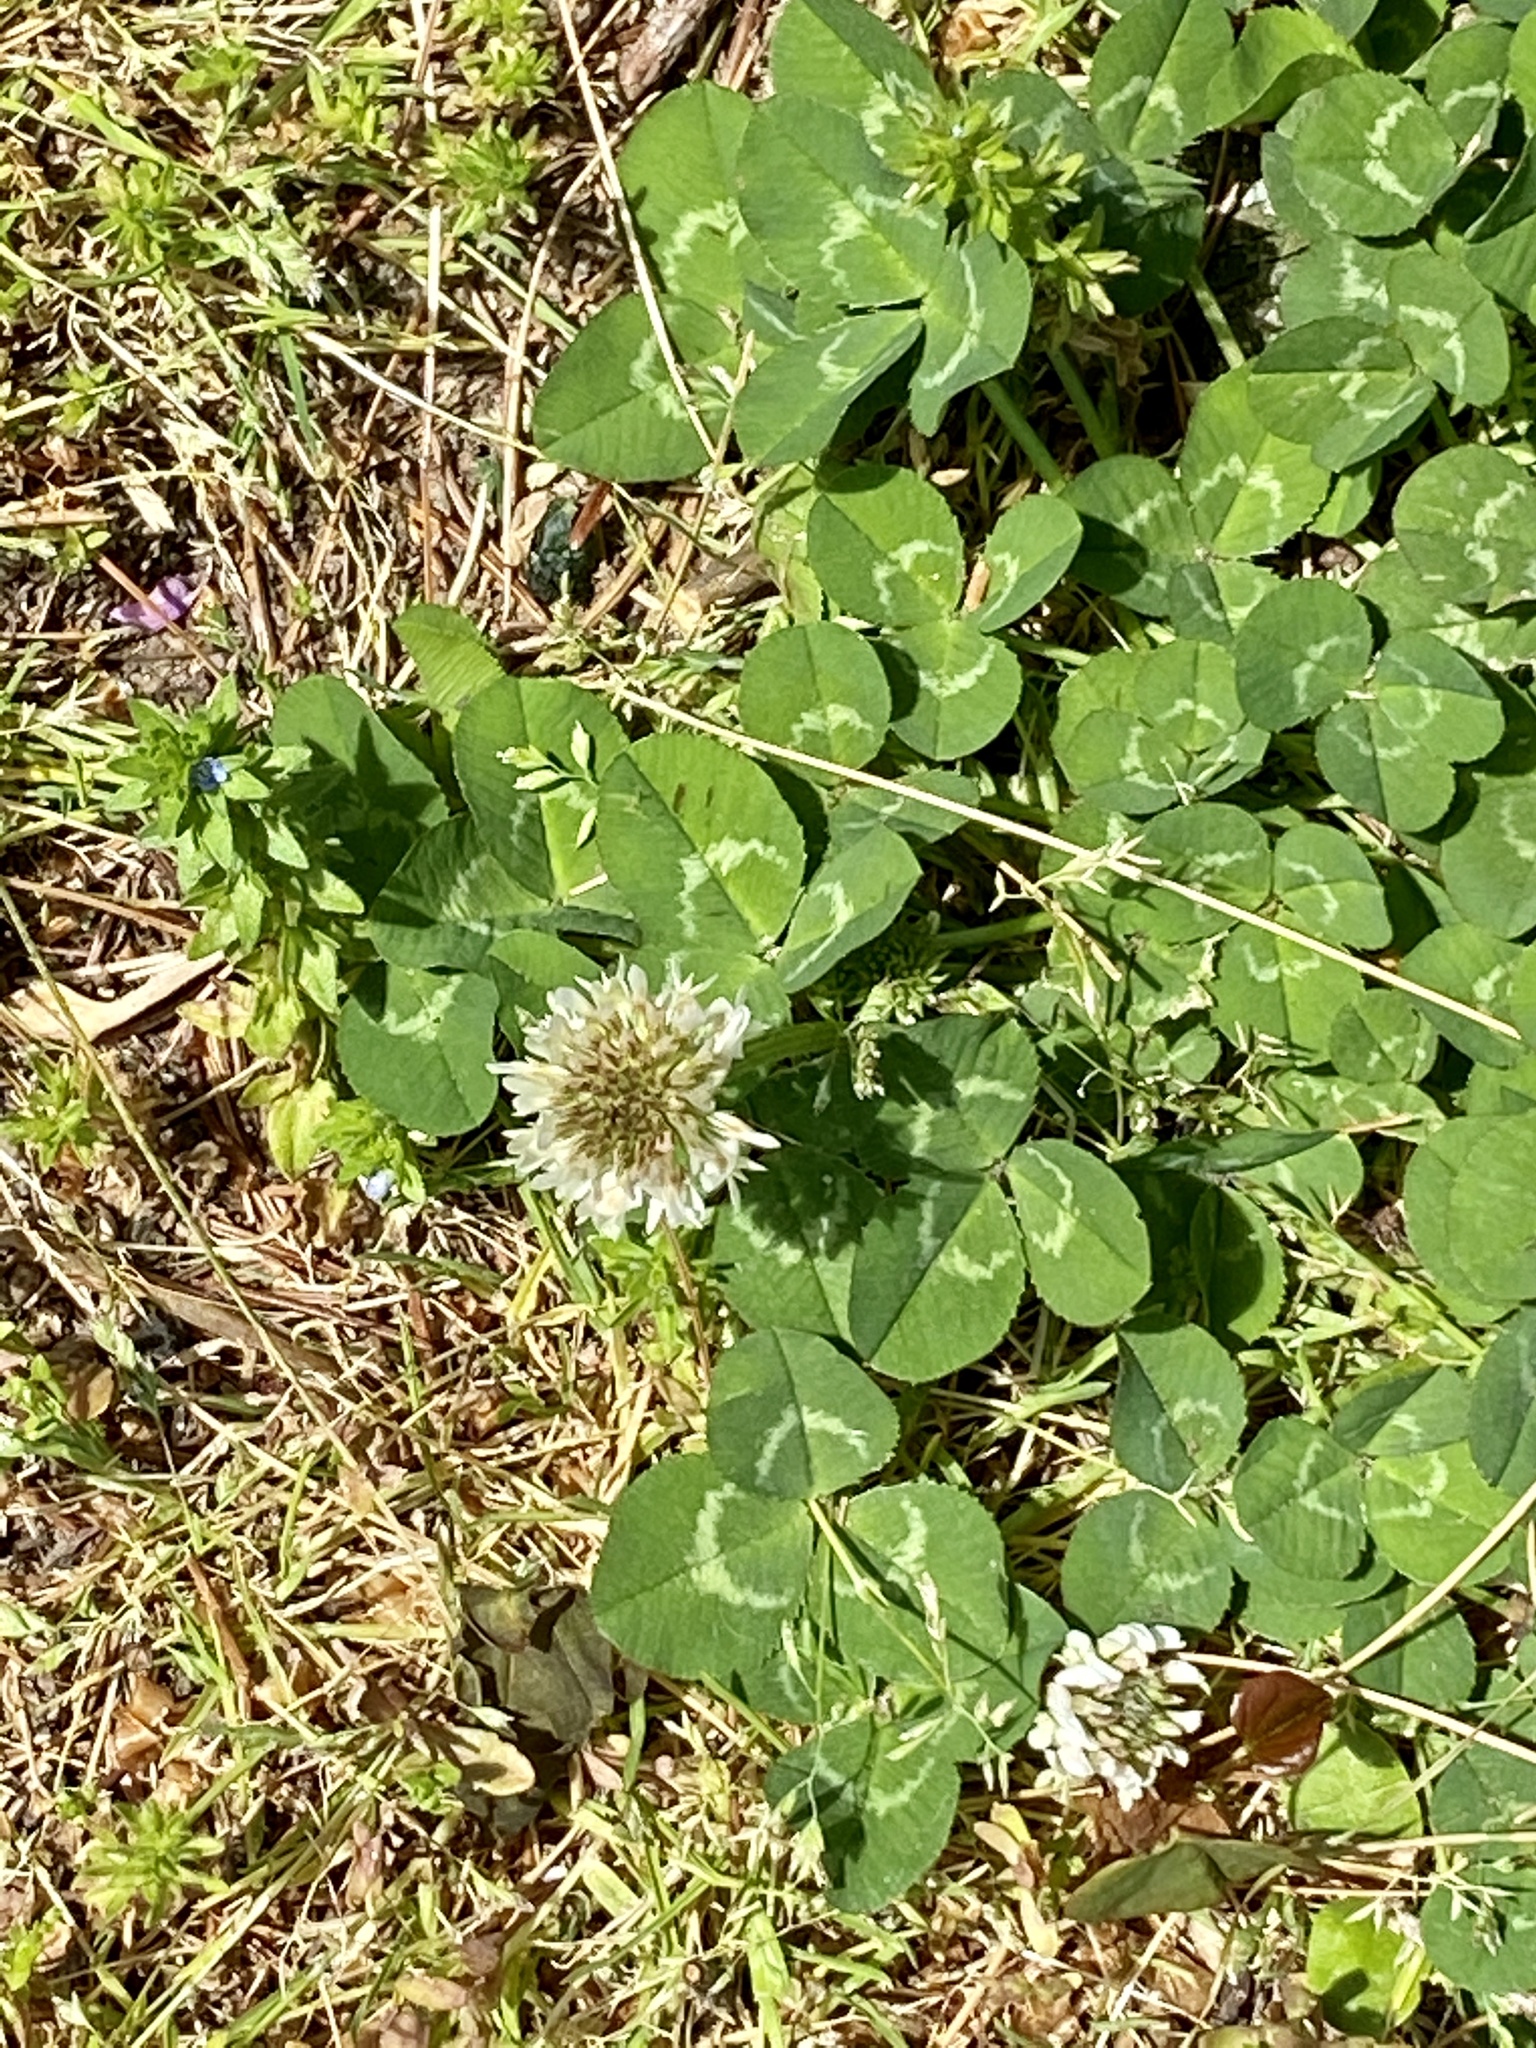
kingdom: Plantae
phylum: Tracheophyta
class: Magnoliopsida
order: Fabales
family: Fabaceae
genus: Trifolium
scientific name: Trifolium repens
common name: White clover
